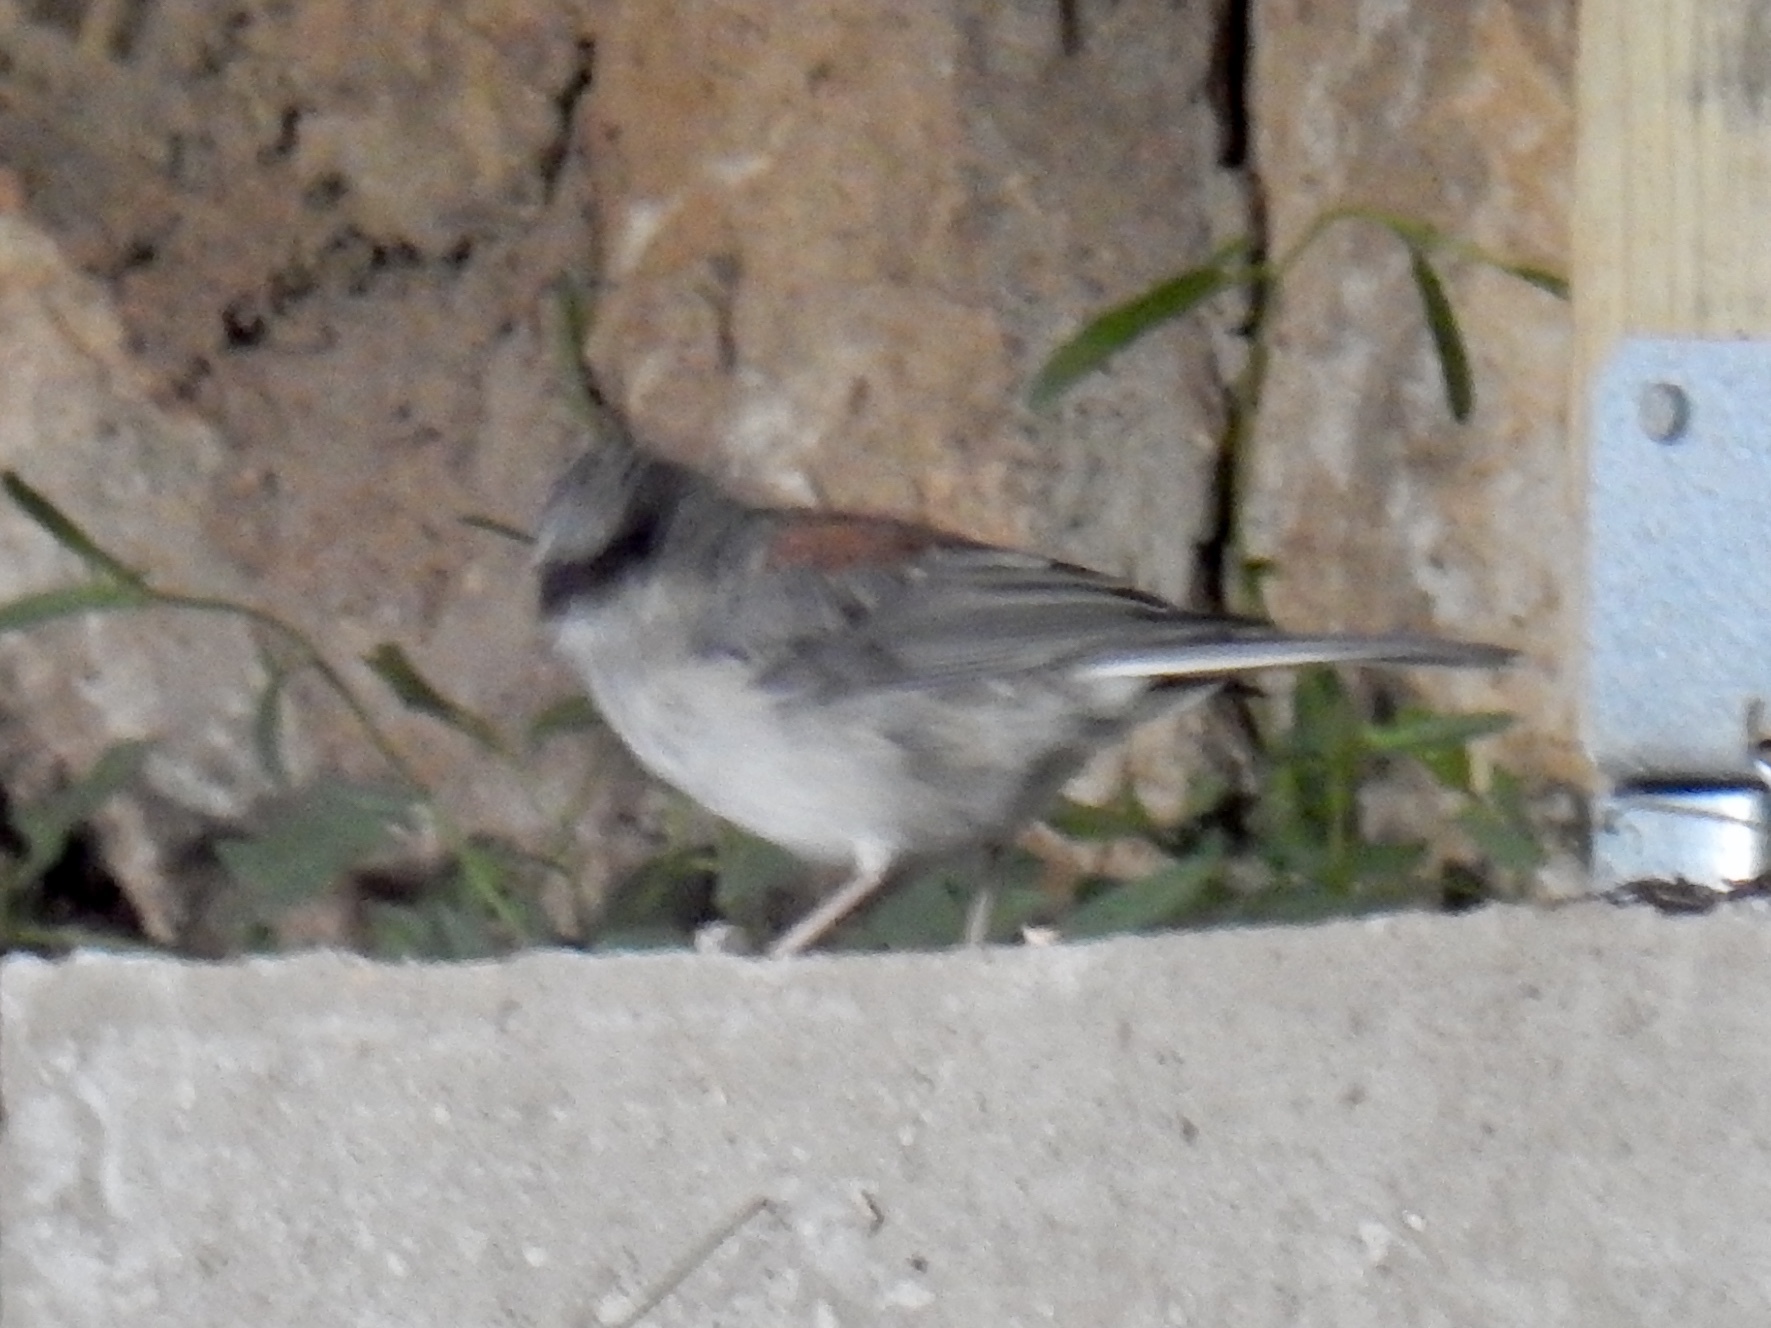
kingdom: Animalia
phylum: Chordata
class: Aves
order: Passeriformes
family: Passerellidae
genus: Junco
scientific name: Junco hyemalis
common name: Dark-eyed junco
